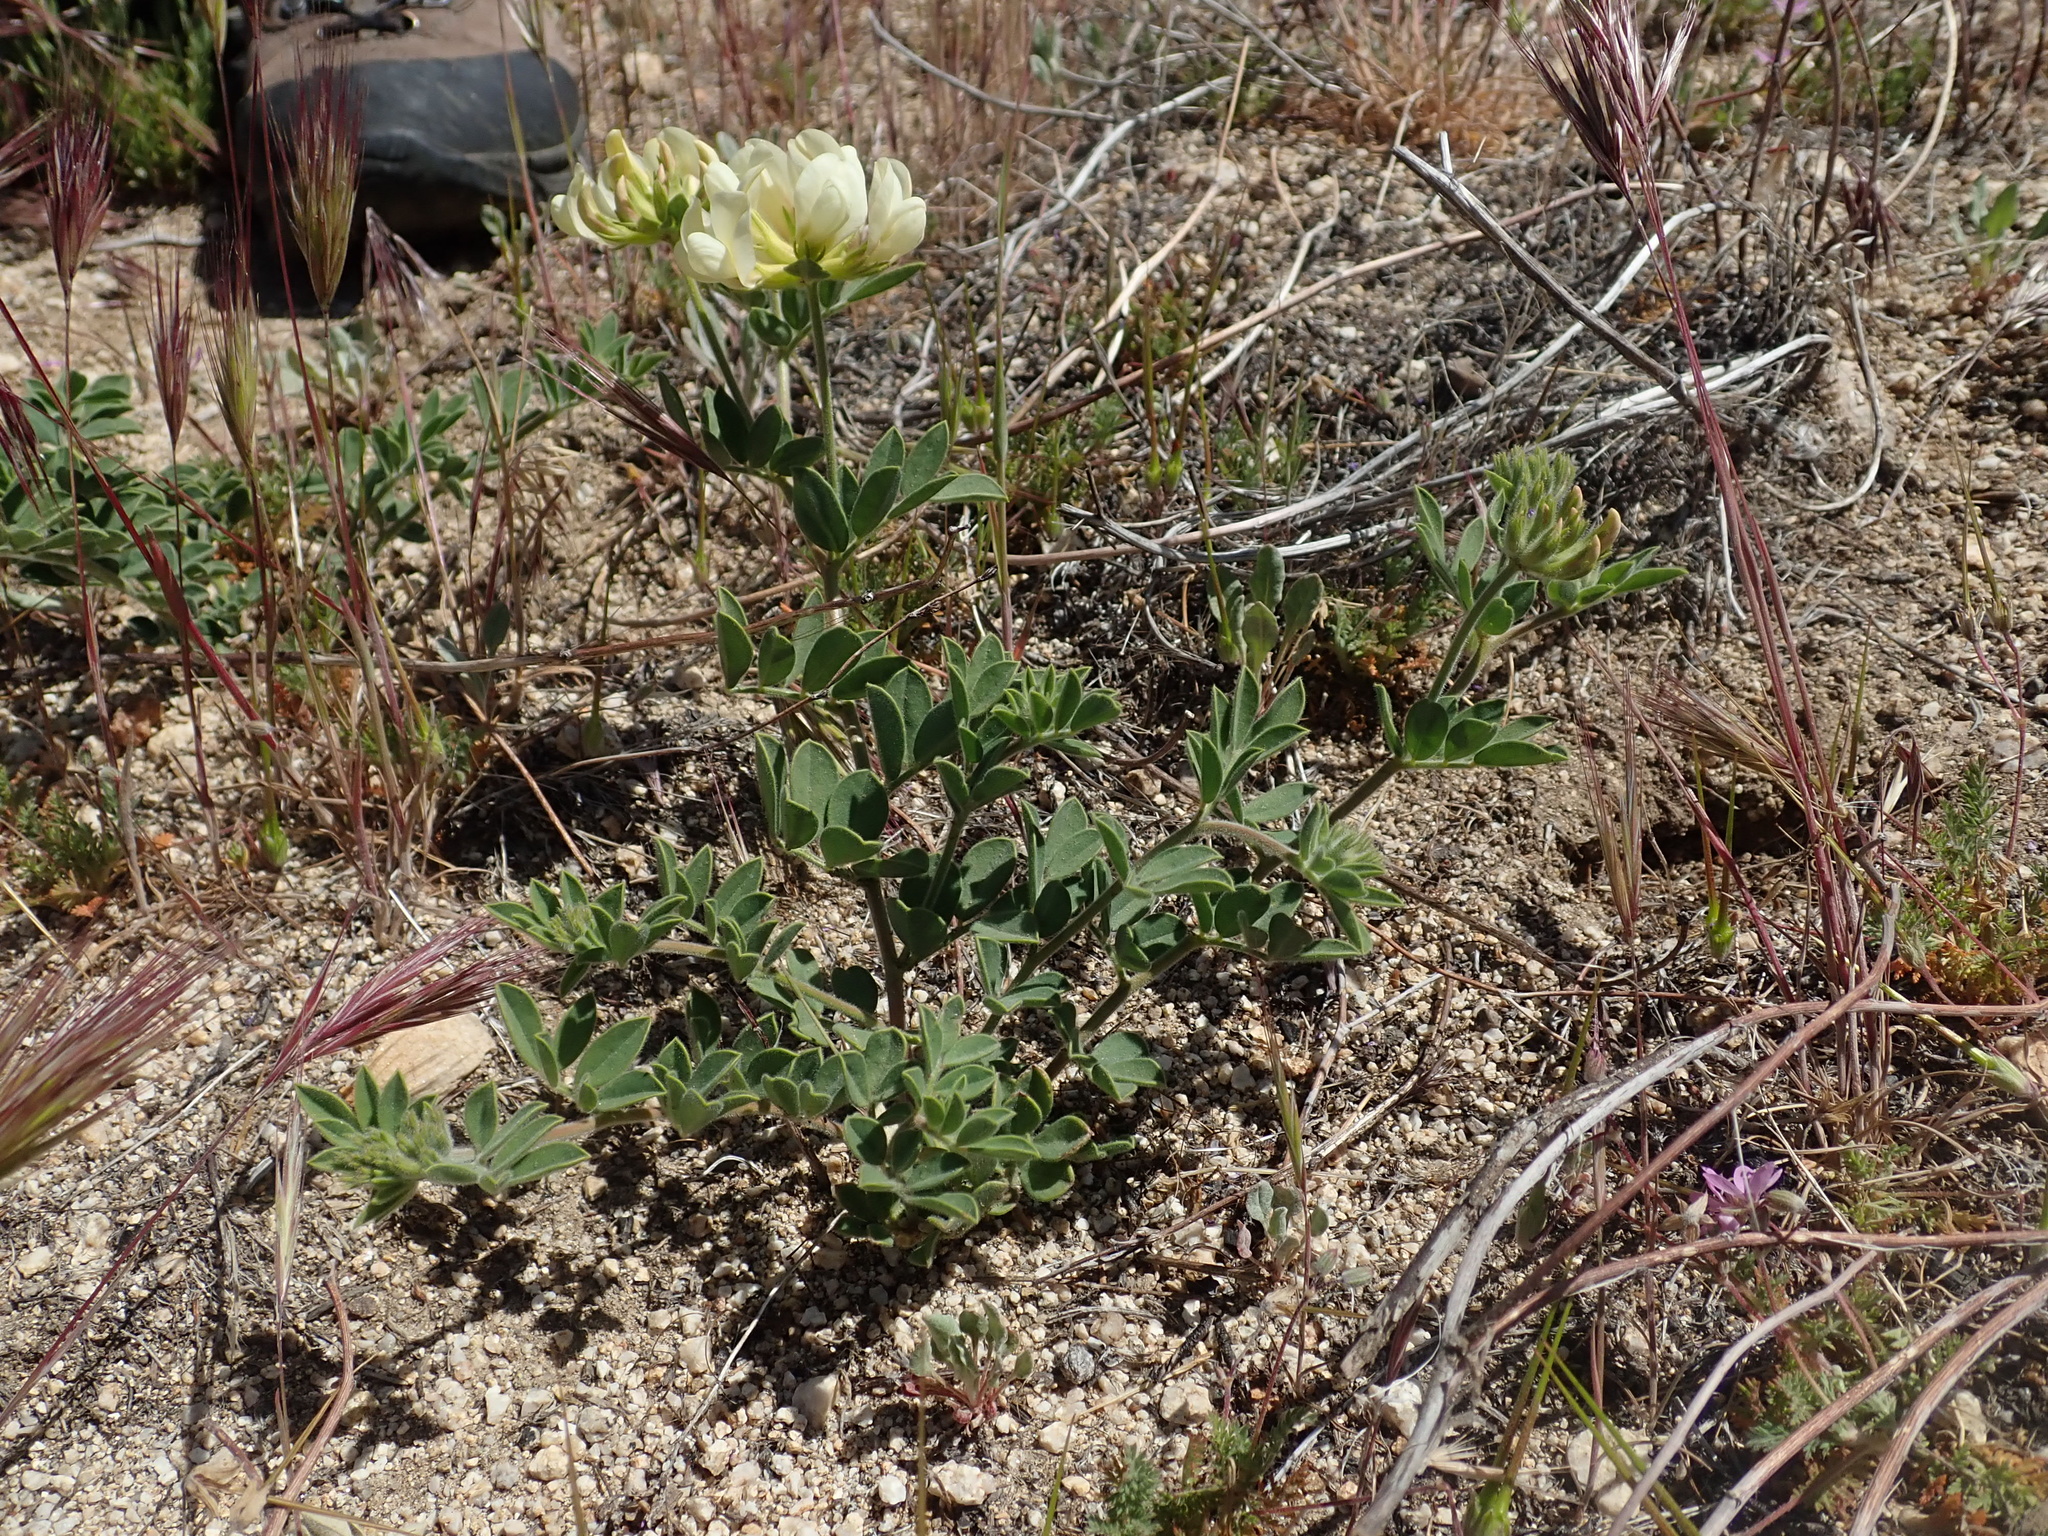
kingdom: Plantae
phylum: Tracheophyta
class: Magnoliopsida
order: Fabales
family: Fabaceae
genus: Acmispon
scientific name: Acmispon grandiflorus
